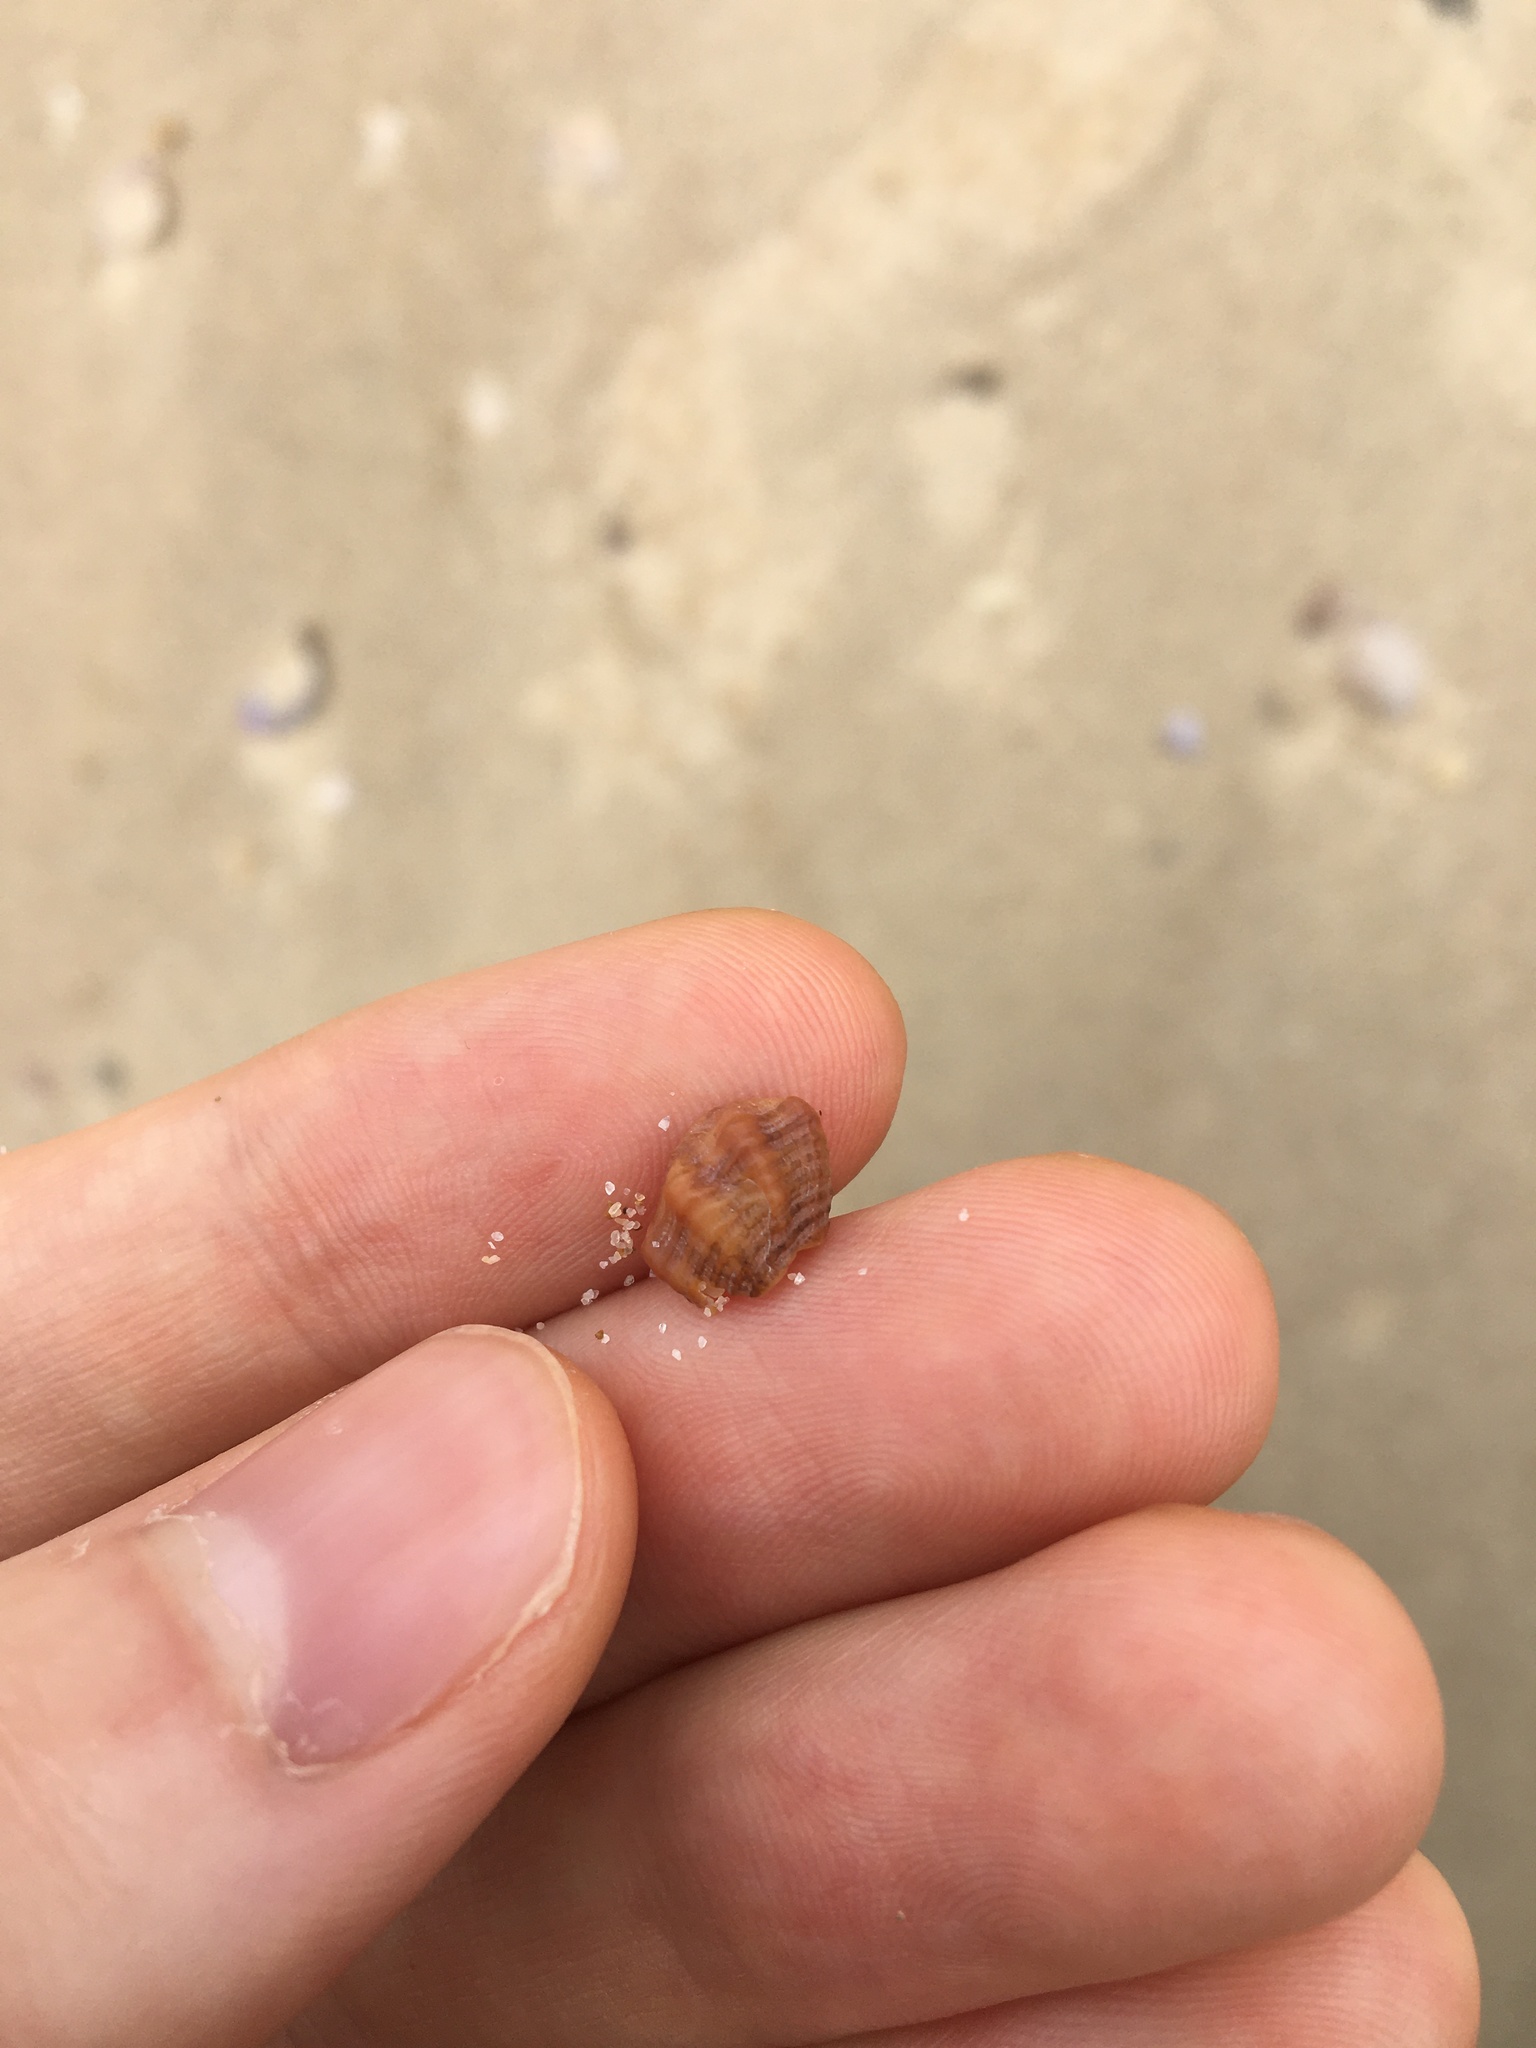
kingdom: Animalia
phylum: Mollusca
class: Gastropoda
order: Neogastropoda
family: Muricidae
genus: Bedeva
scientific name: Bedeva paivae
